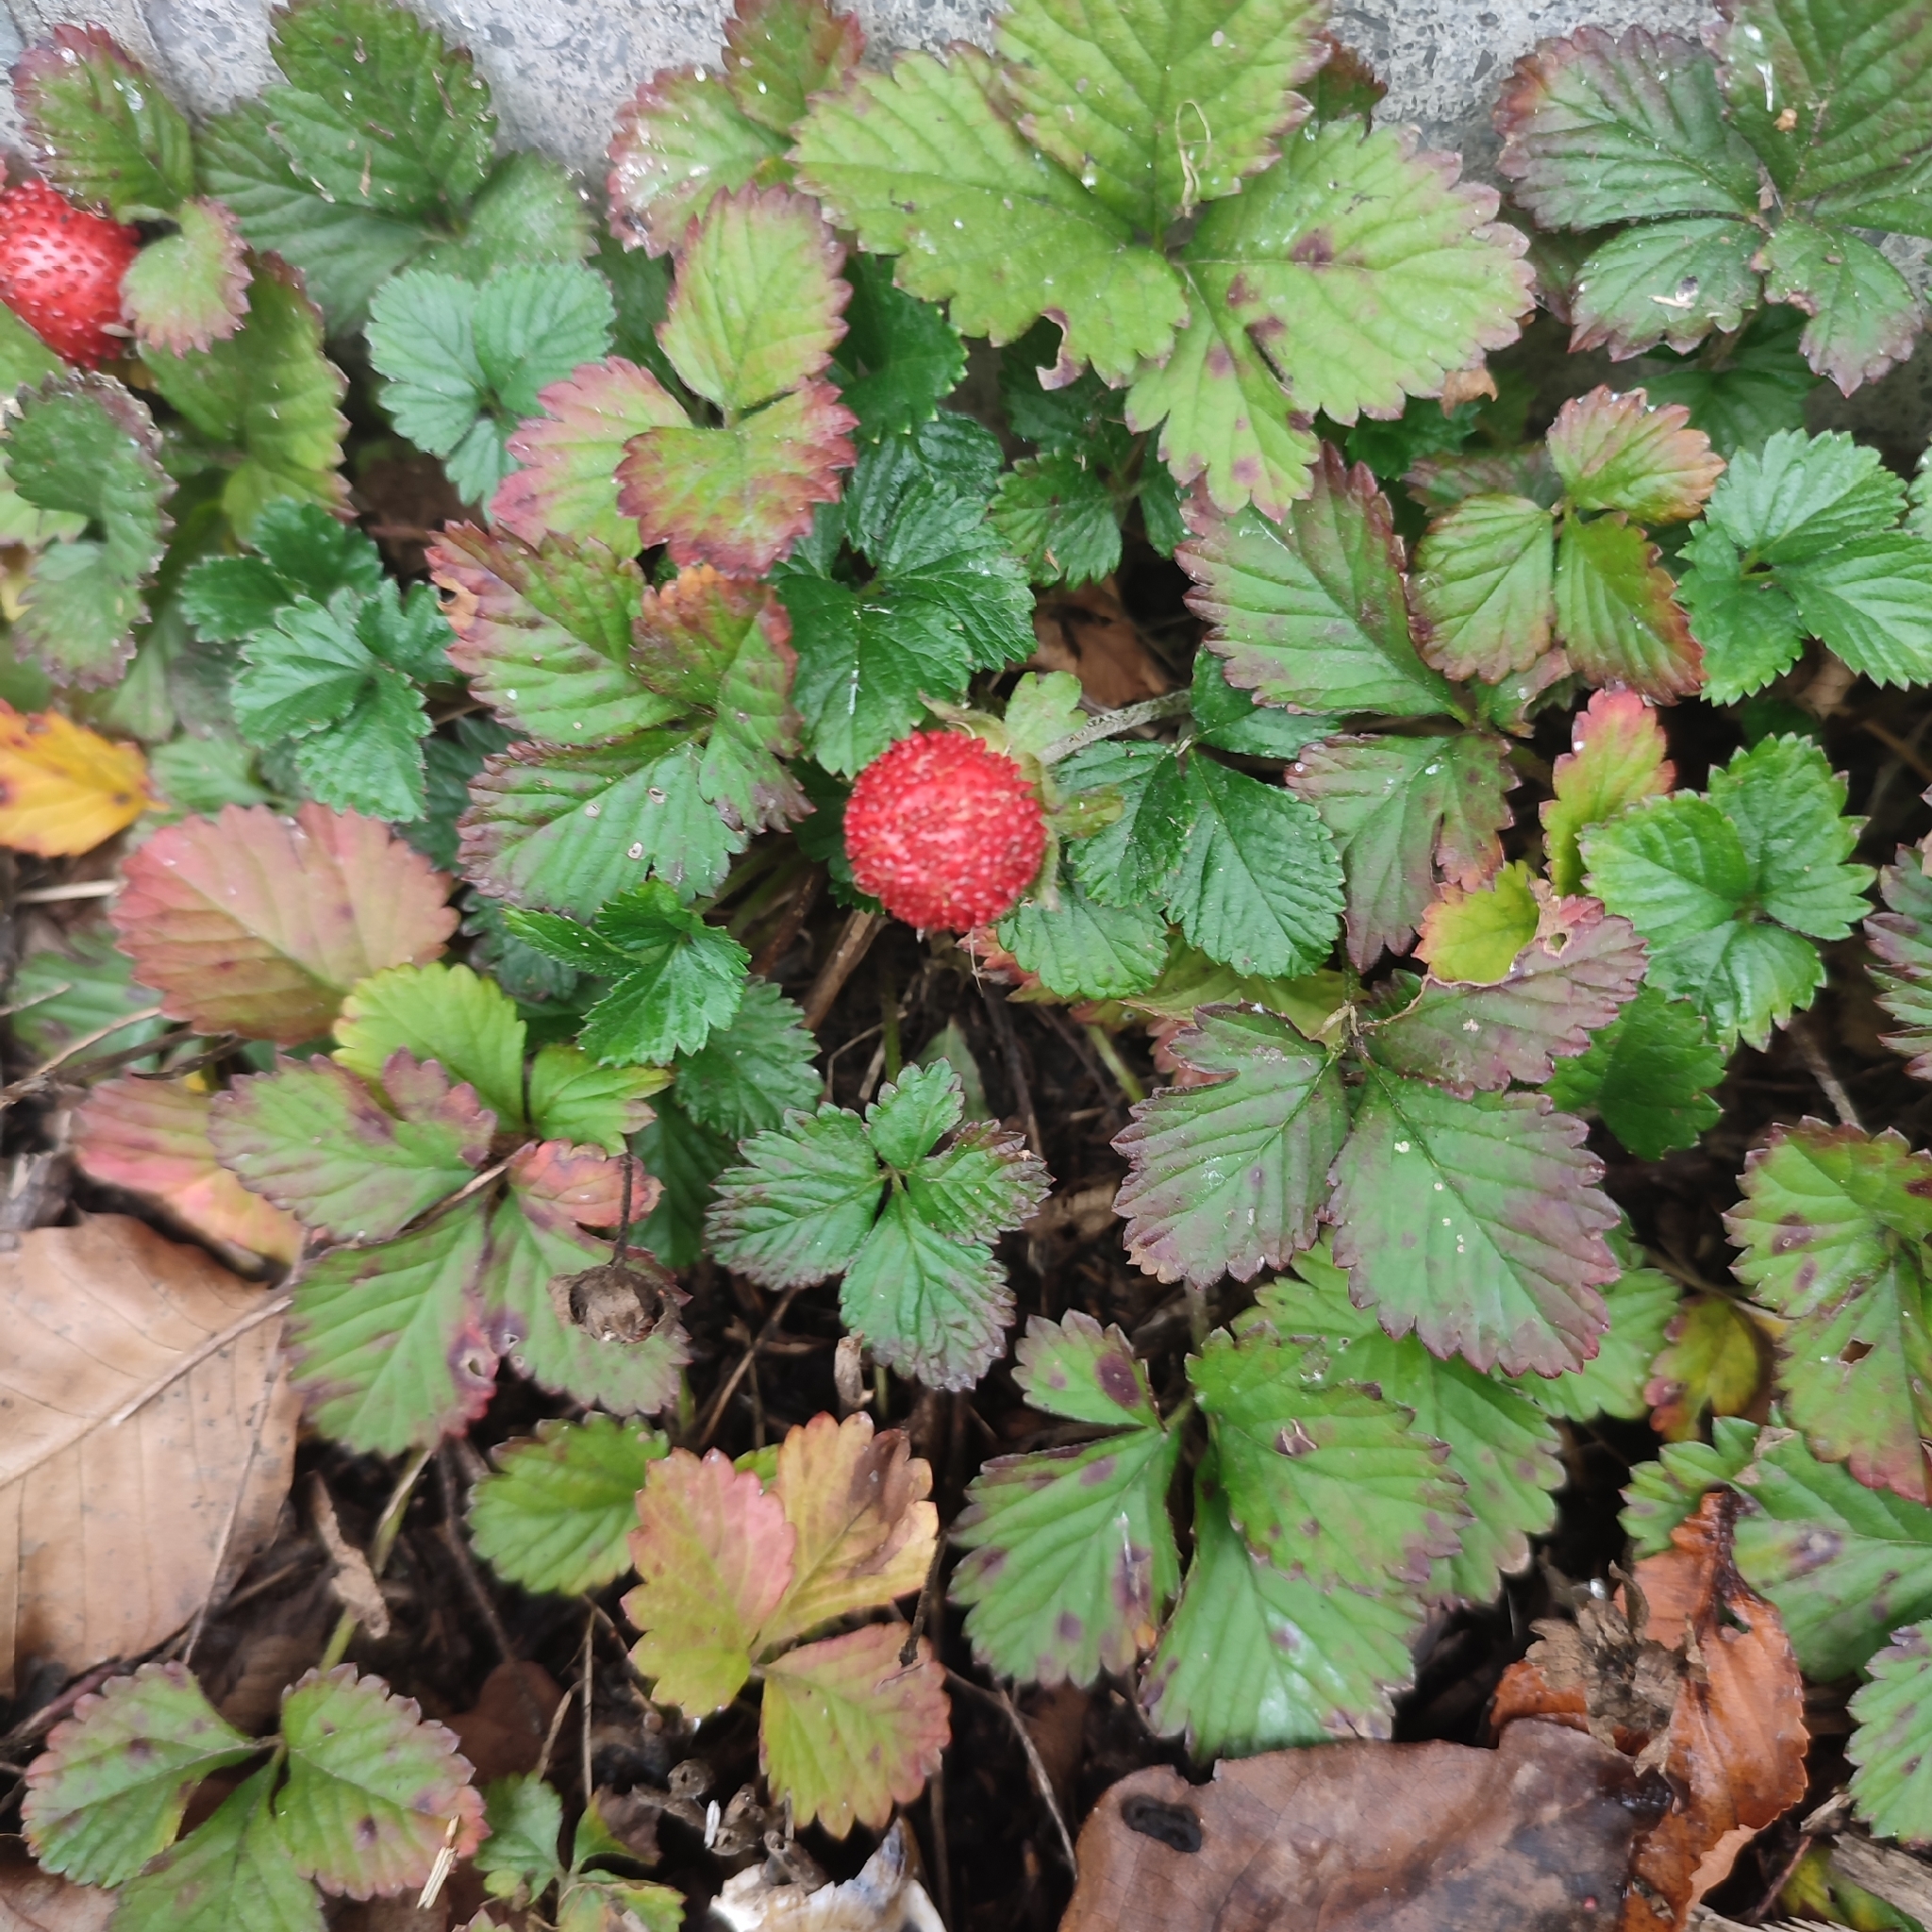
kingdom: Plantae
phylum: Tracheophyta
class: Magnoliopsida
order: Rosales
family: Rosaceae
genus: Potentilla
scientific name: Potentilla indica
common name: Yellow-flowered strawberry
